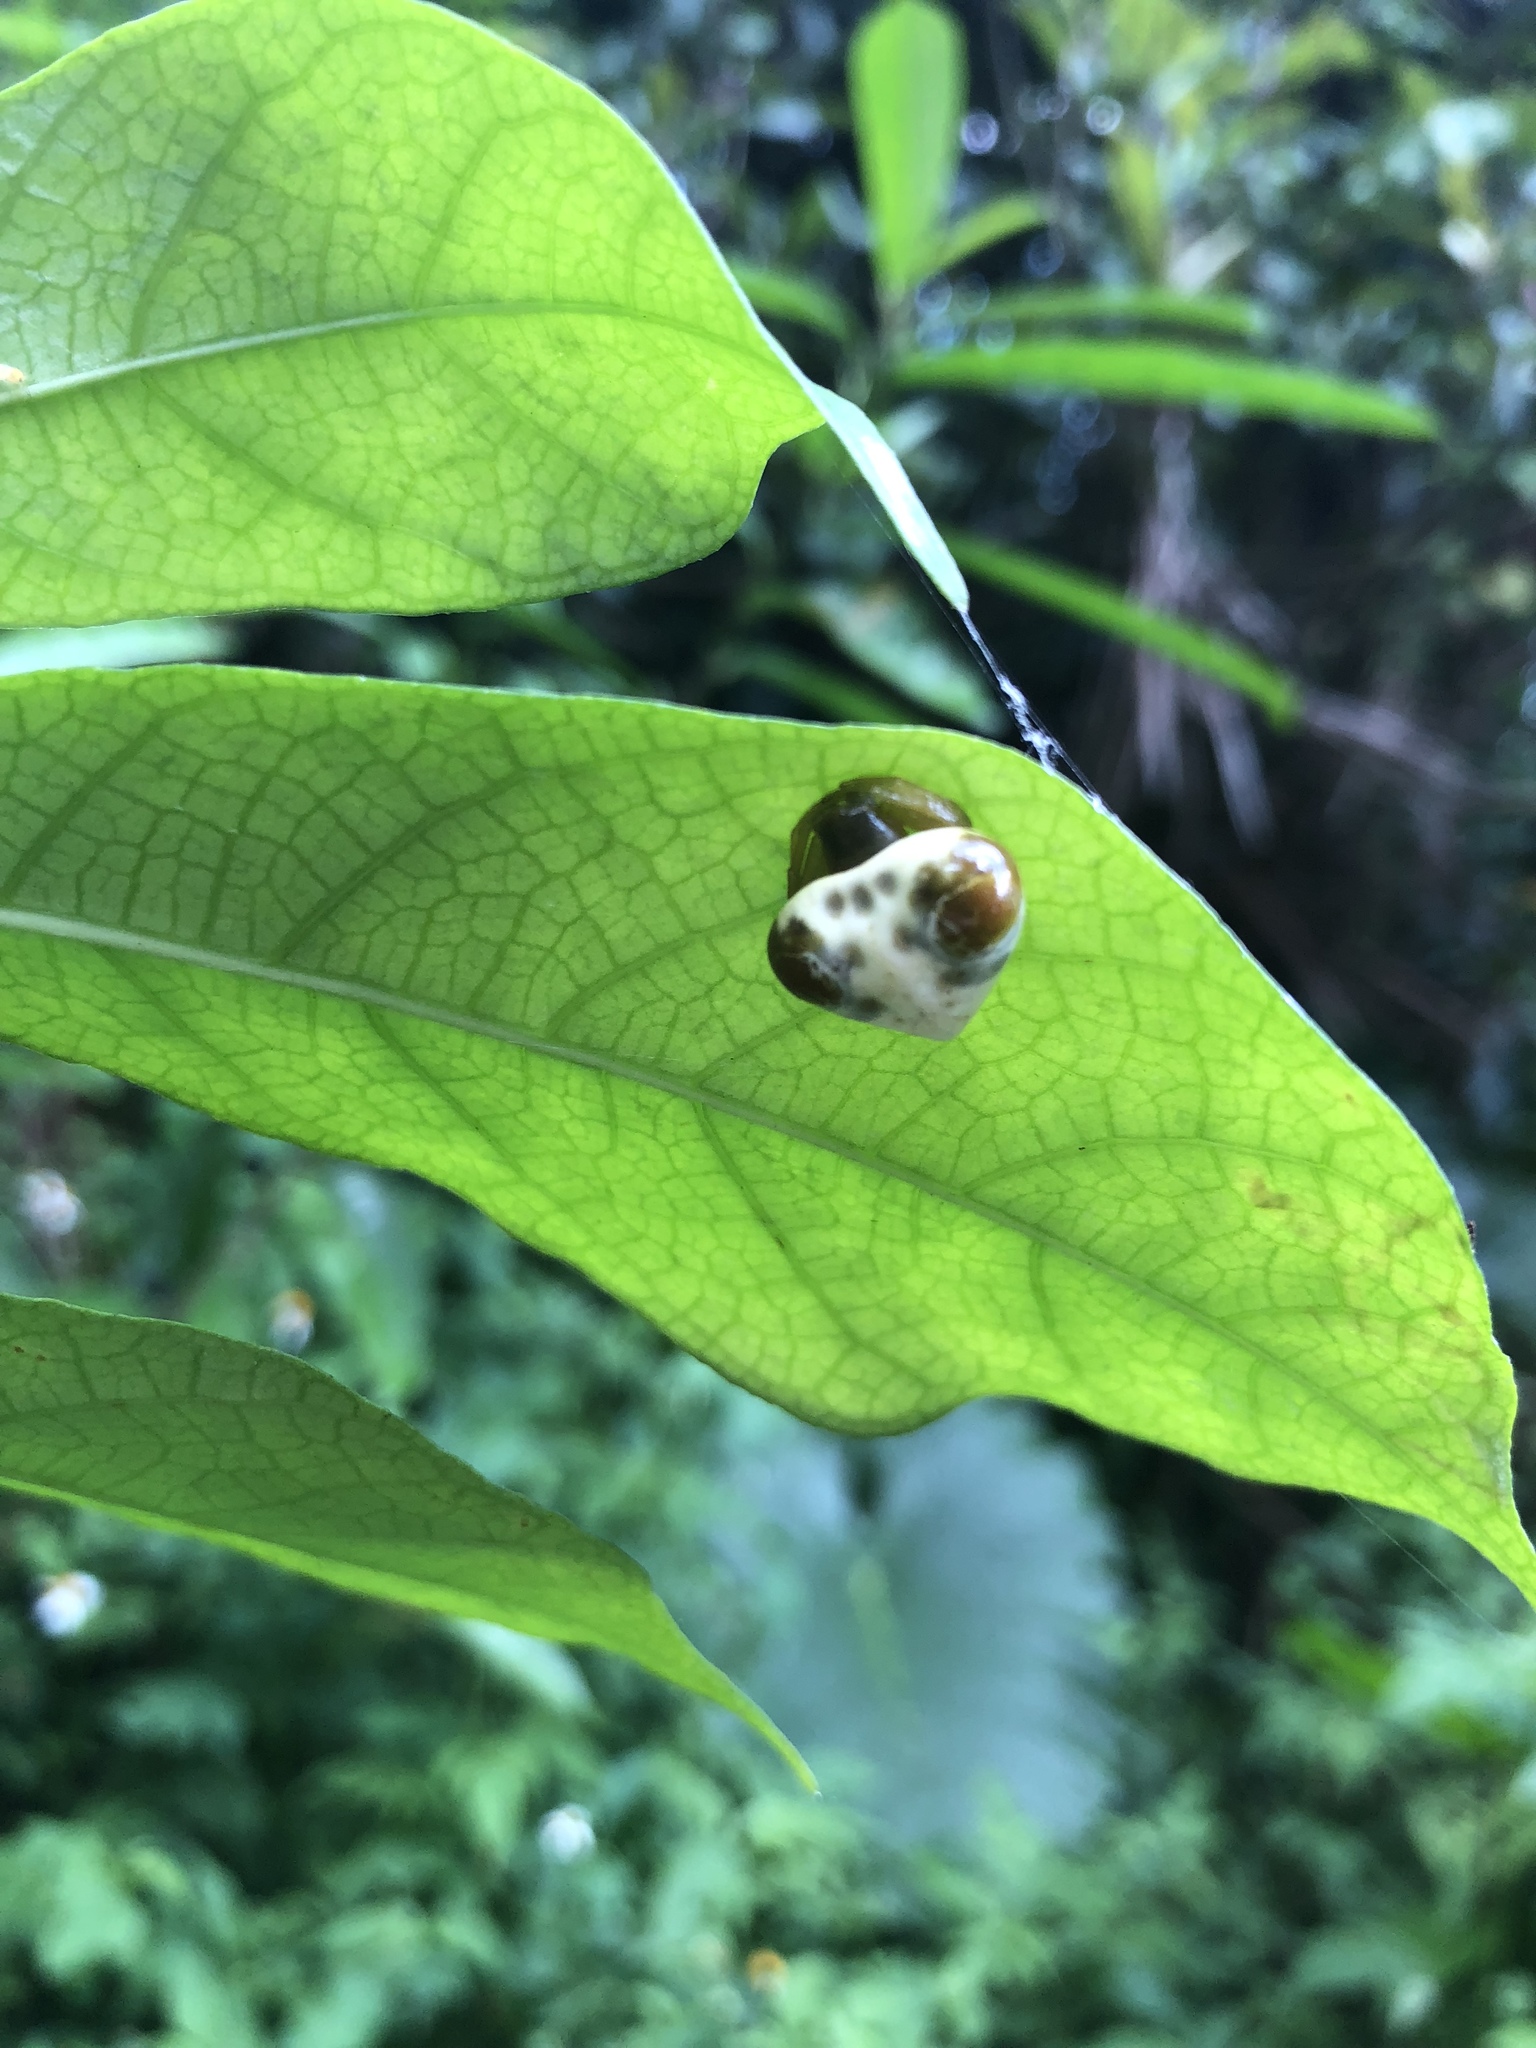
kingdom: Animalia
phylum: Arthropoda
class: Arachnida
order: Araneae
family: Araneidae
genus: Cyrtarachne
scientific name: Cyrtarachne bufo
